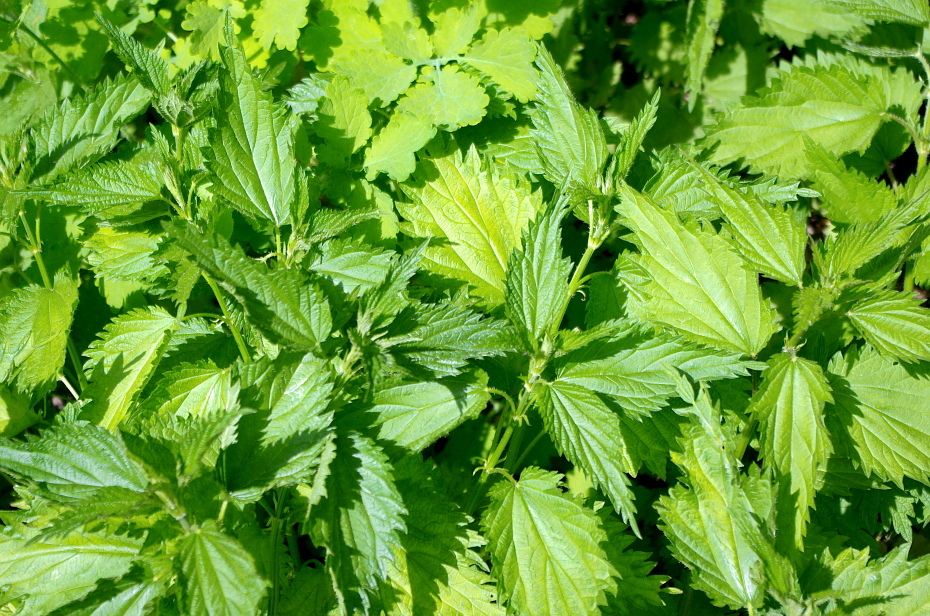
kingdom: Plantae
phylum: Tracheophyta
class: Magnoliopsida
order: Rosales
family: Urticaceae
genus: Urtica
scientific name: Urtica dioica
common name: Common nettle
